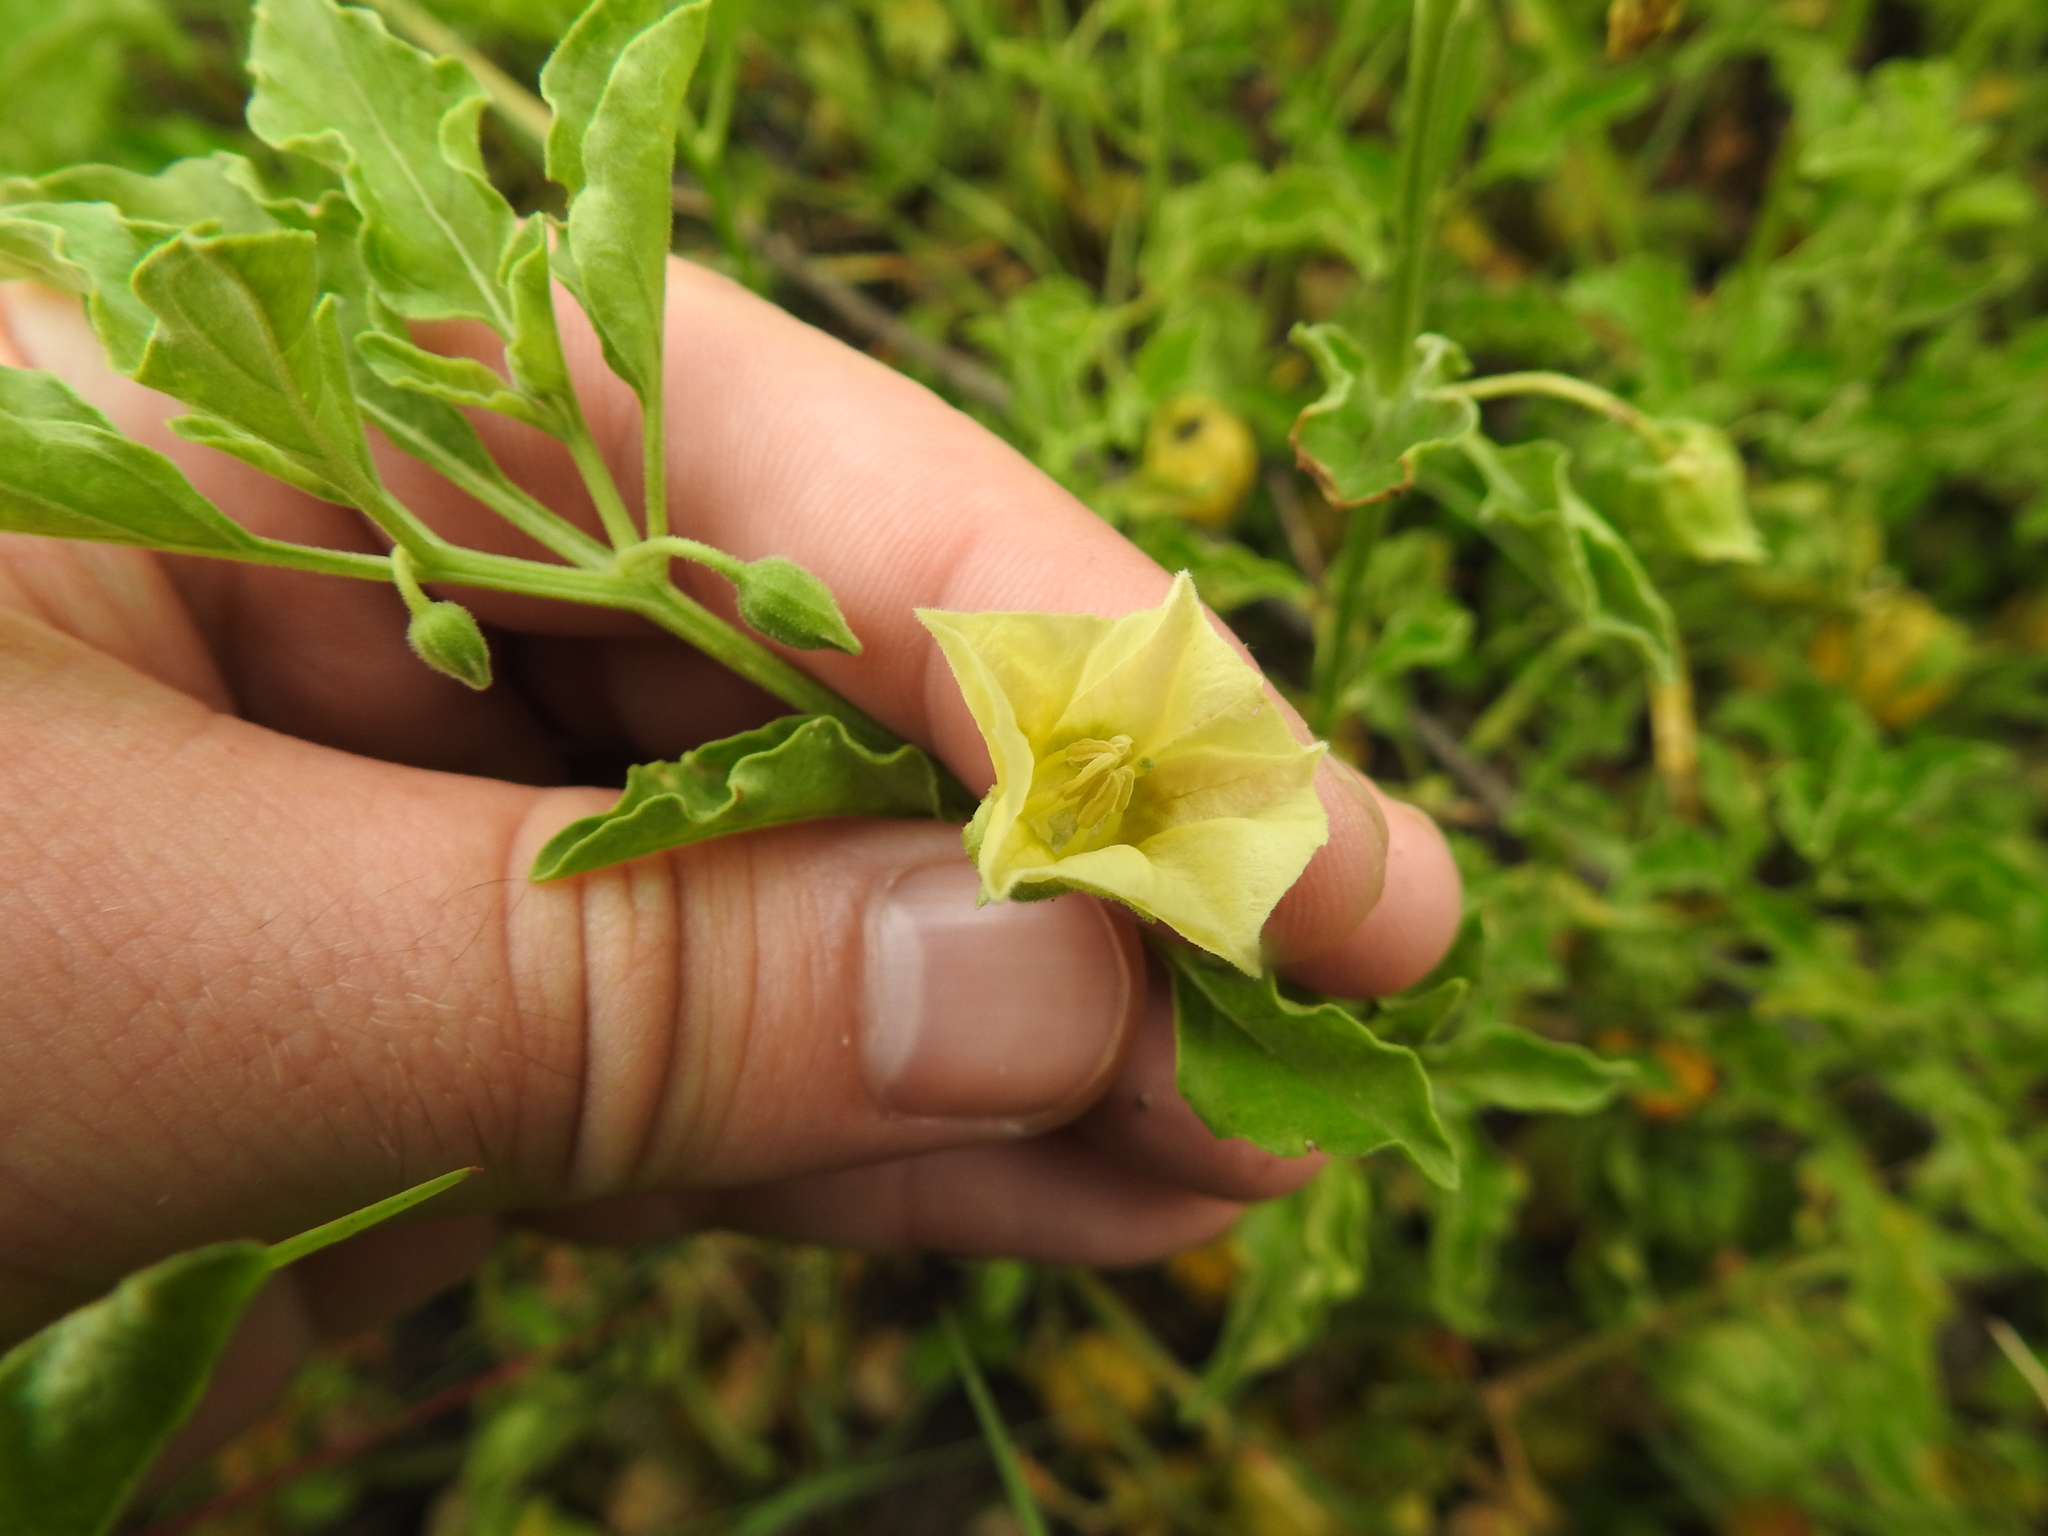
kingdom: Plantae
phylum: Tracheophyta
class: Magnoliopsida
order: Solanales
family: Solanaceae
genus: Physalis
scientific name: Physalis viscosa
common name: Stellate ground-cherry
